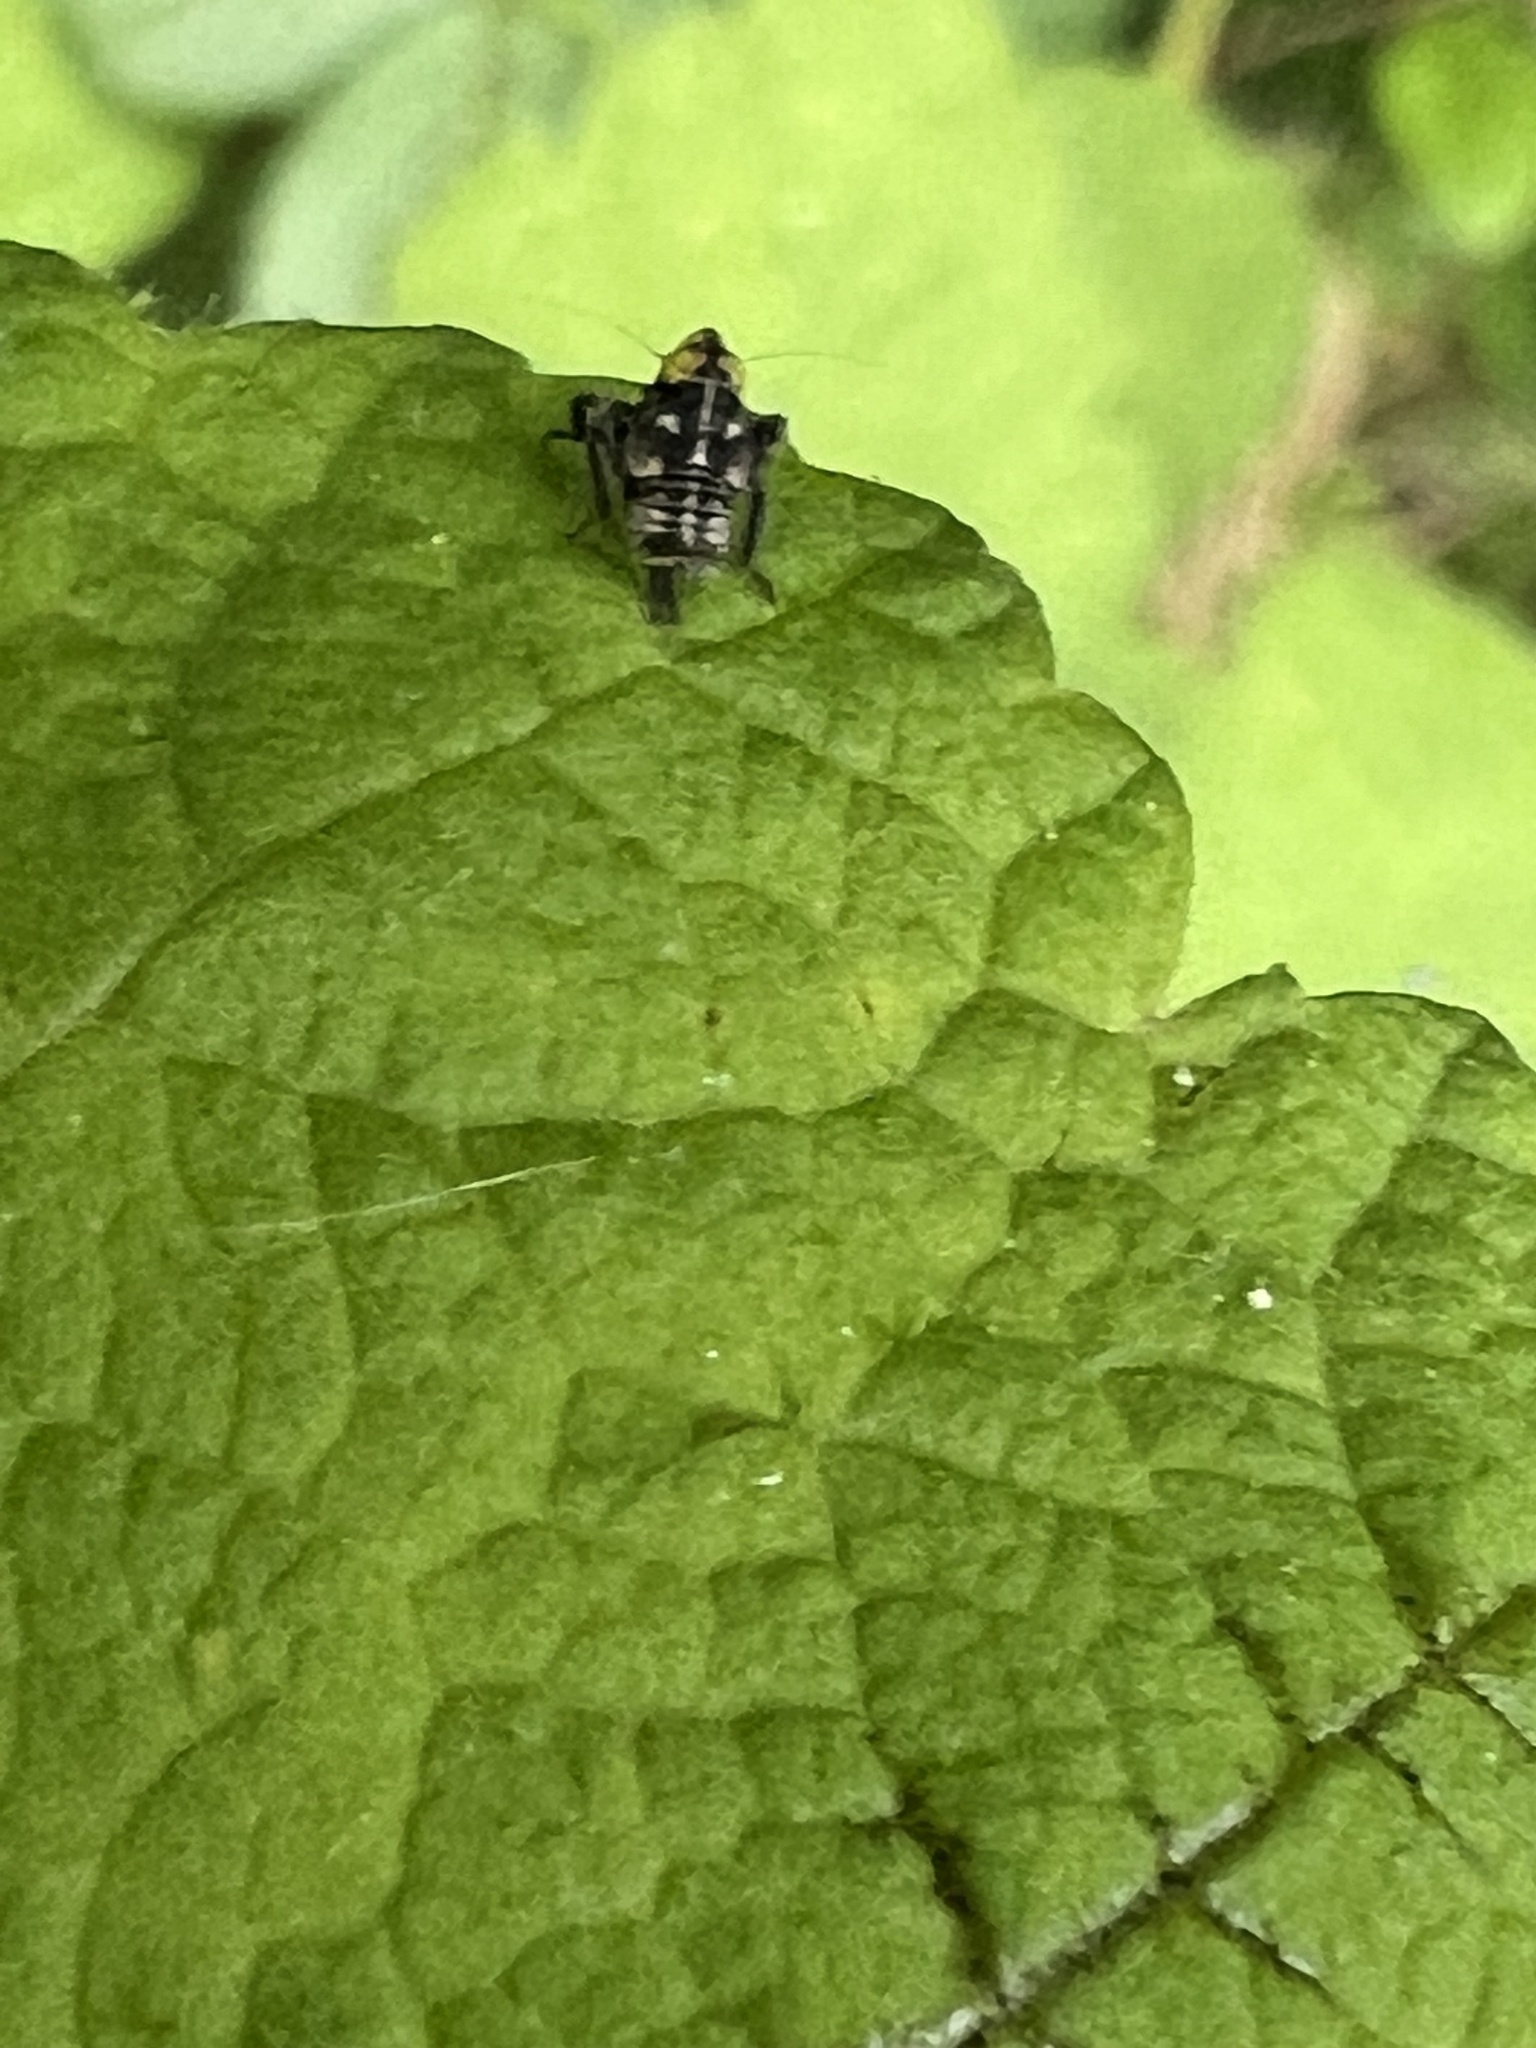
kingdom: Animalia
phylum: Arthropoda
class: Insecta
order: Hemiptera
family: Cicadellidae
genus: Jikradia
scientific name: Jikradia olitoria
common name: Coppery leafhopper
